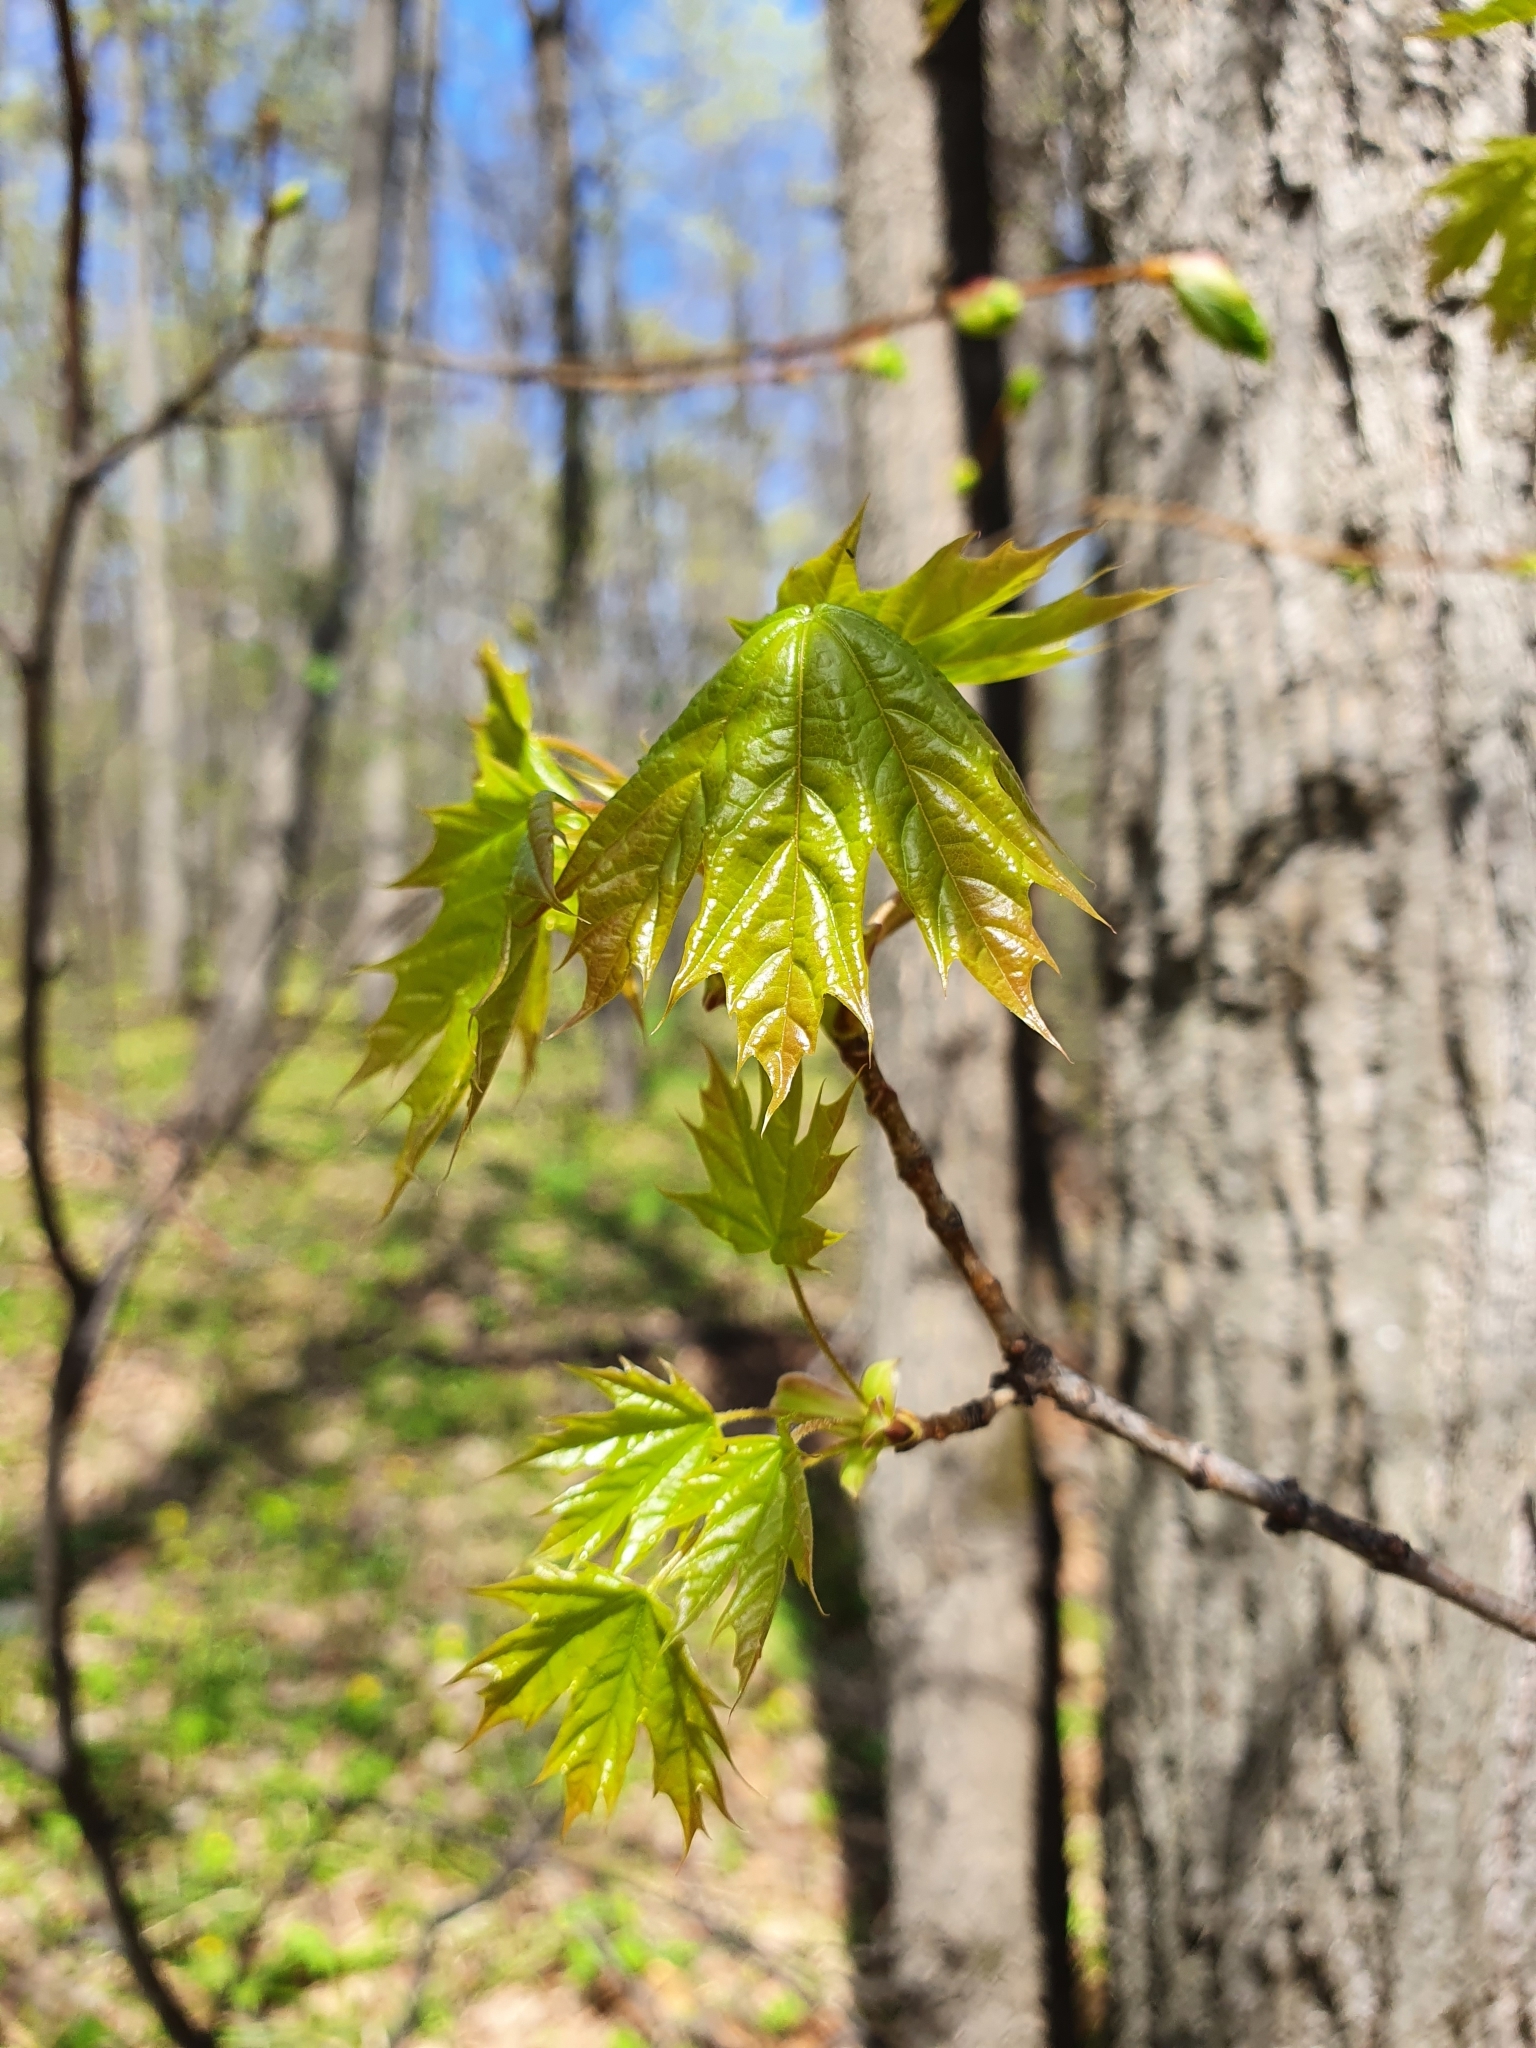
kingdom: Plantae
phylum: Tracheophyta
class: Magnoliopsida
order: Sapindales
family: Sapindaceae
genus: Acer
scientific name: Acer platanoides
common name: Norway maple
